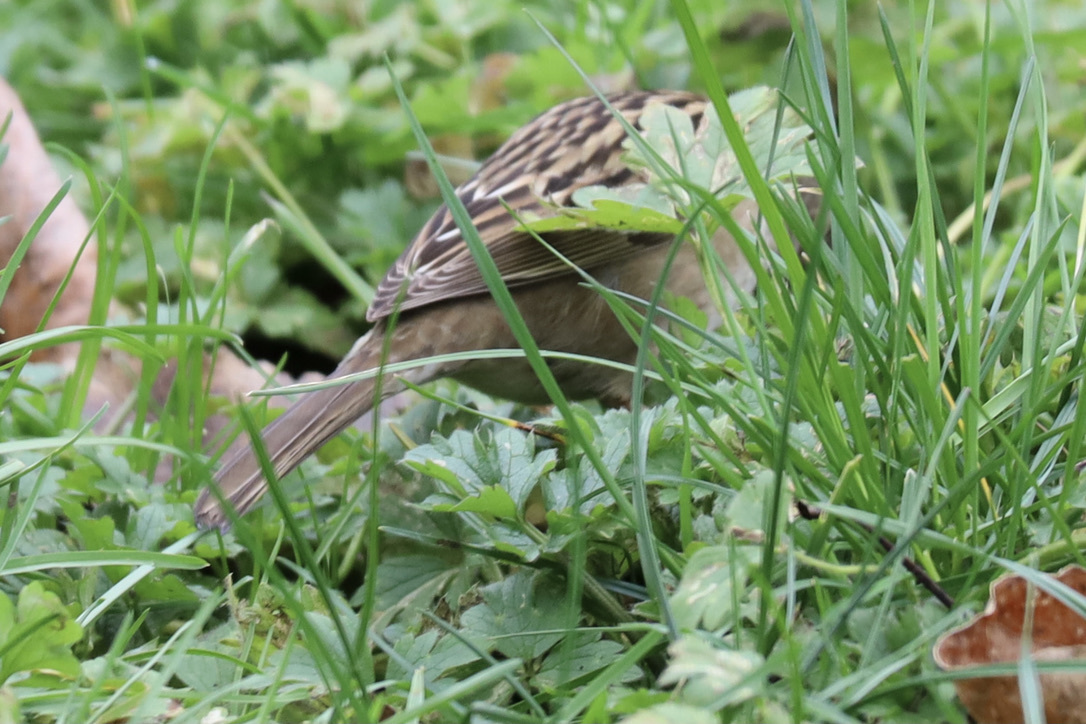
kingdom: Animalia
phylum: Chordata
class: Aves
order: Passeriformes
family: Passerellidae
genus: Zonotrichia
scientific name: Zonotrichia atricapilla
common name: Golden-crowned sparrow
